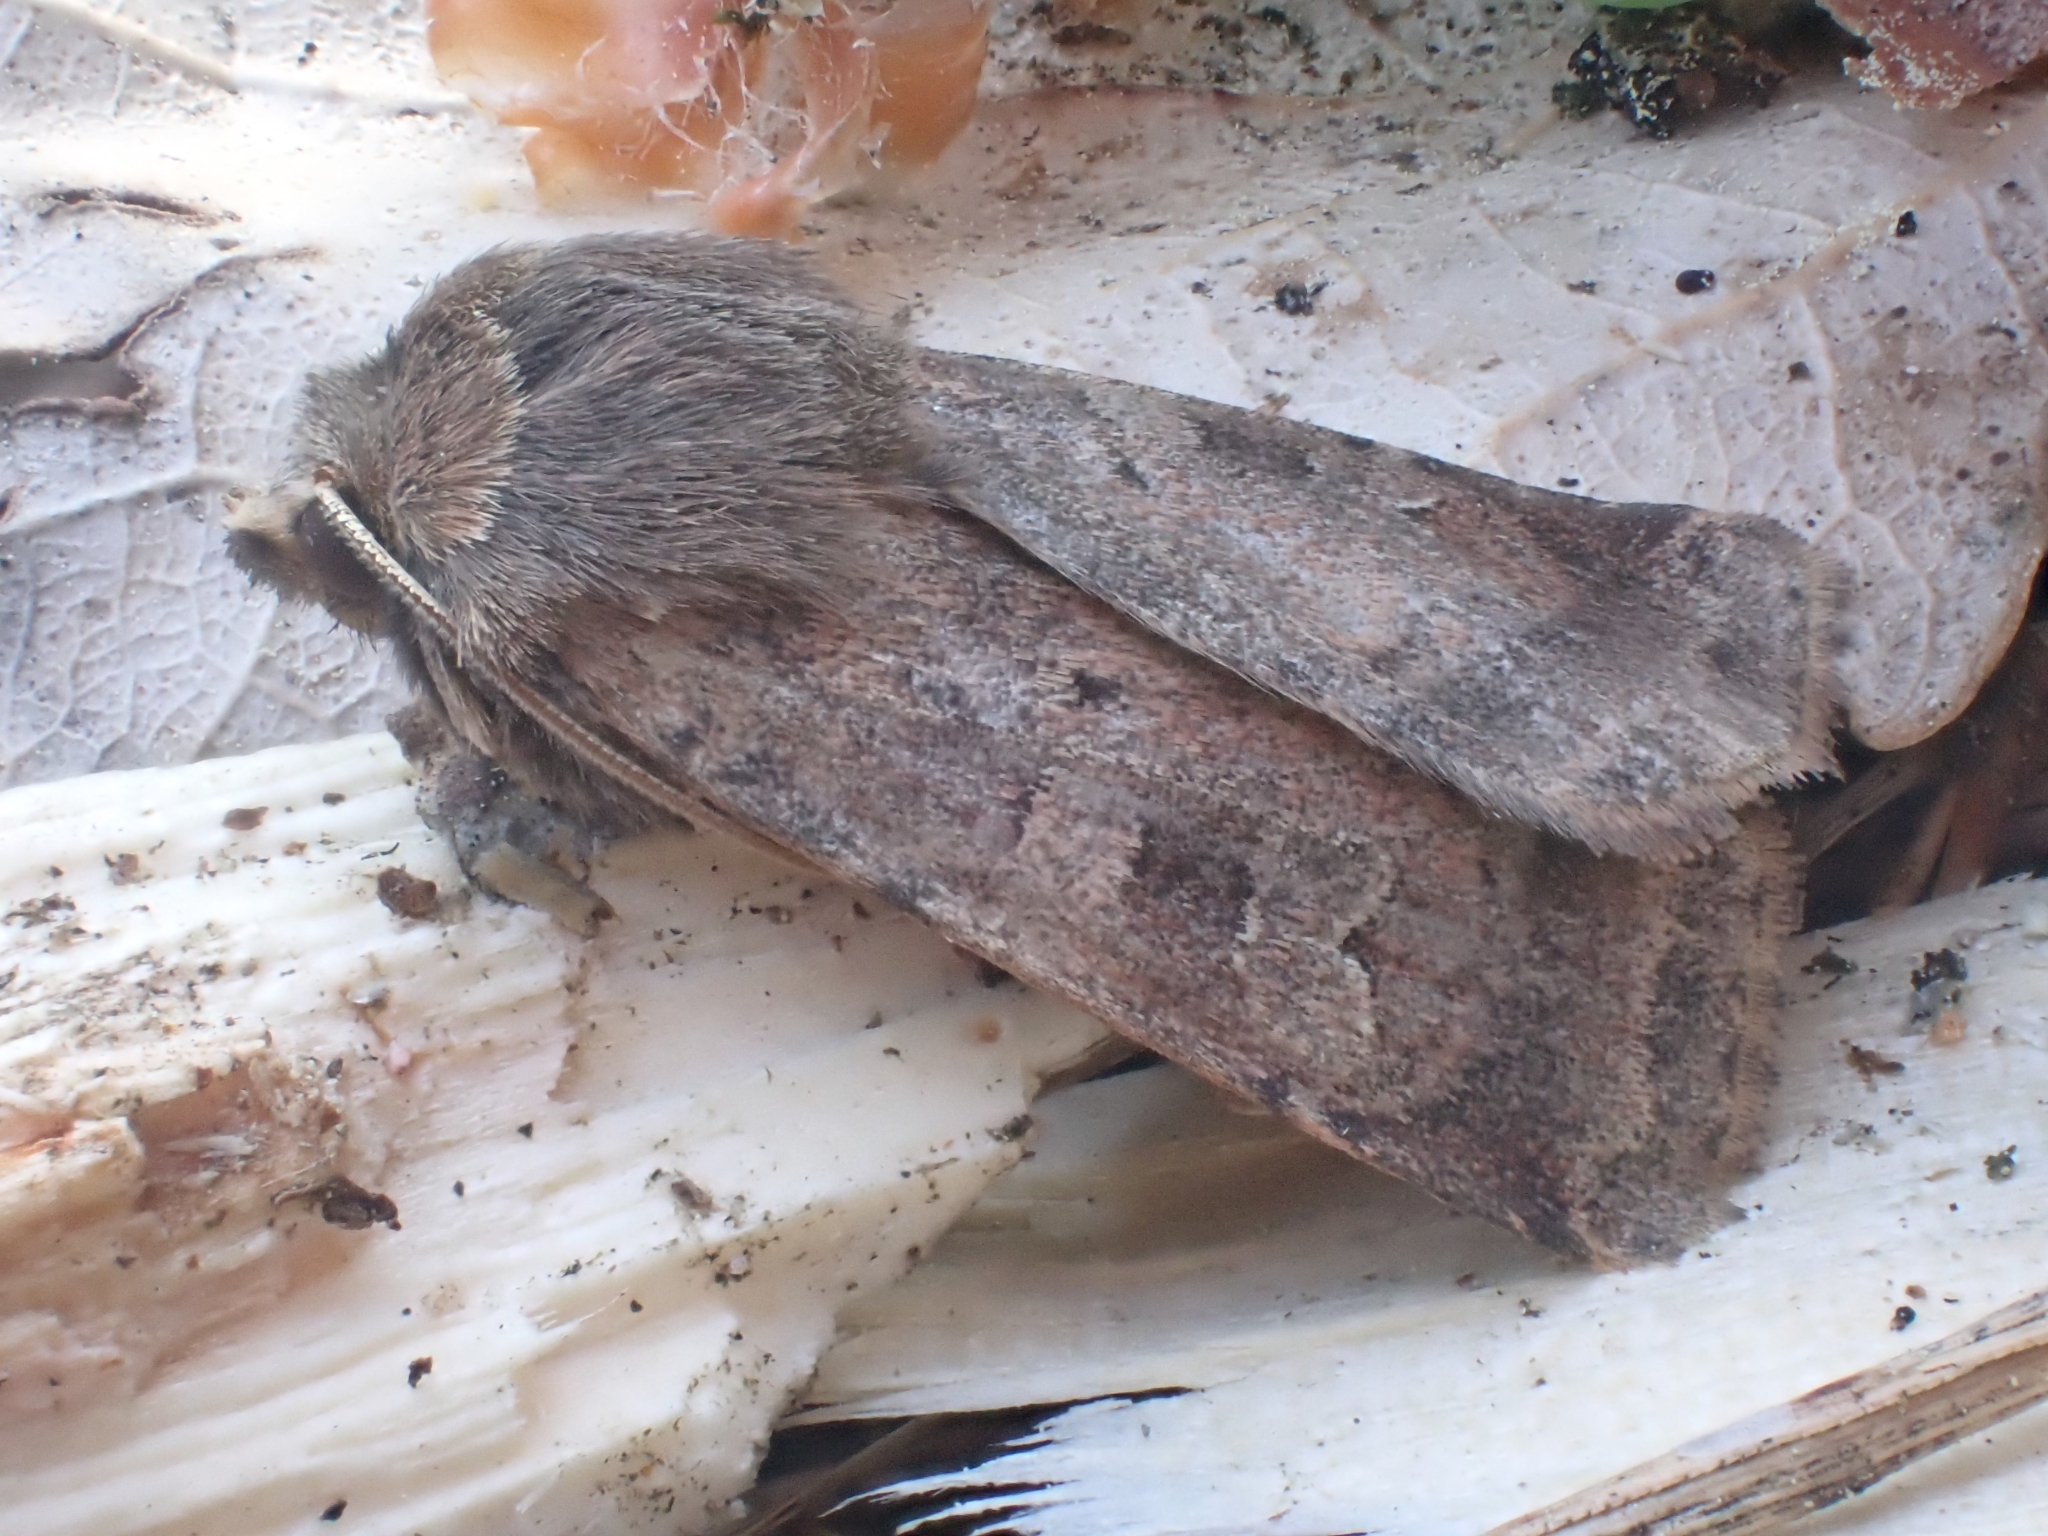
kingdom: Animalia
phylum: Arthropoda
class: Insecta
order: Lepidoptera
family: Noctuidae
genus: Diarsia
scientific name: Diarsia rubi
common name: Small square-spot
